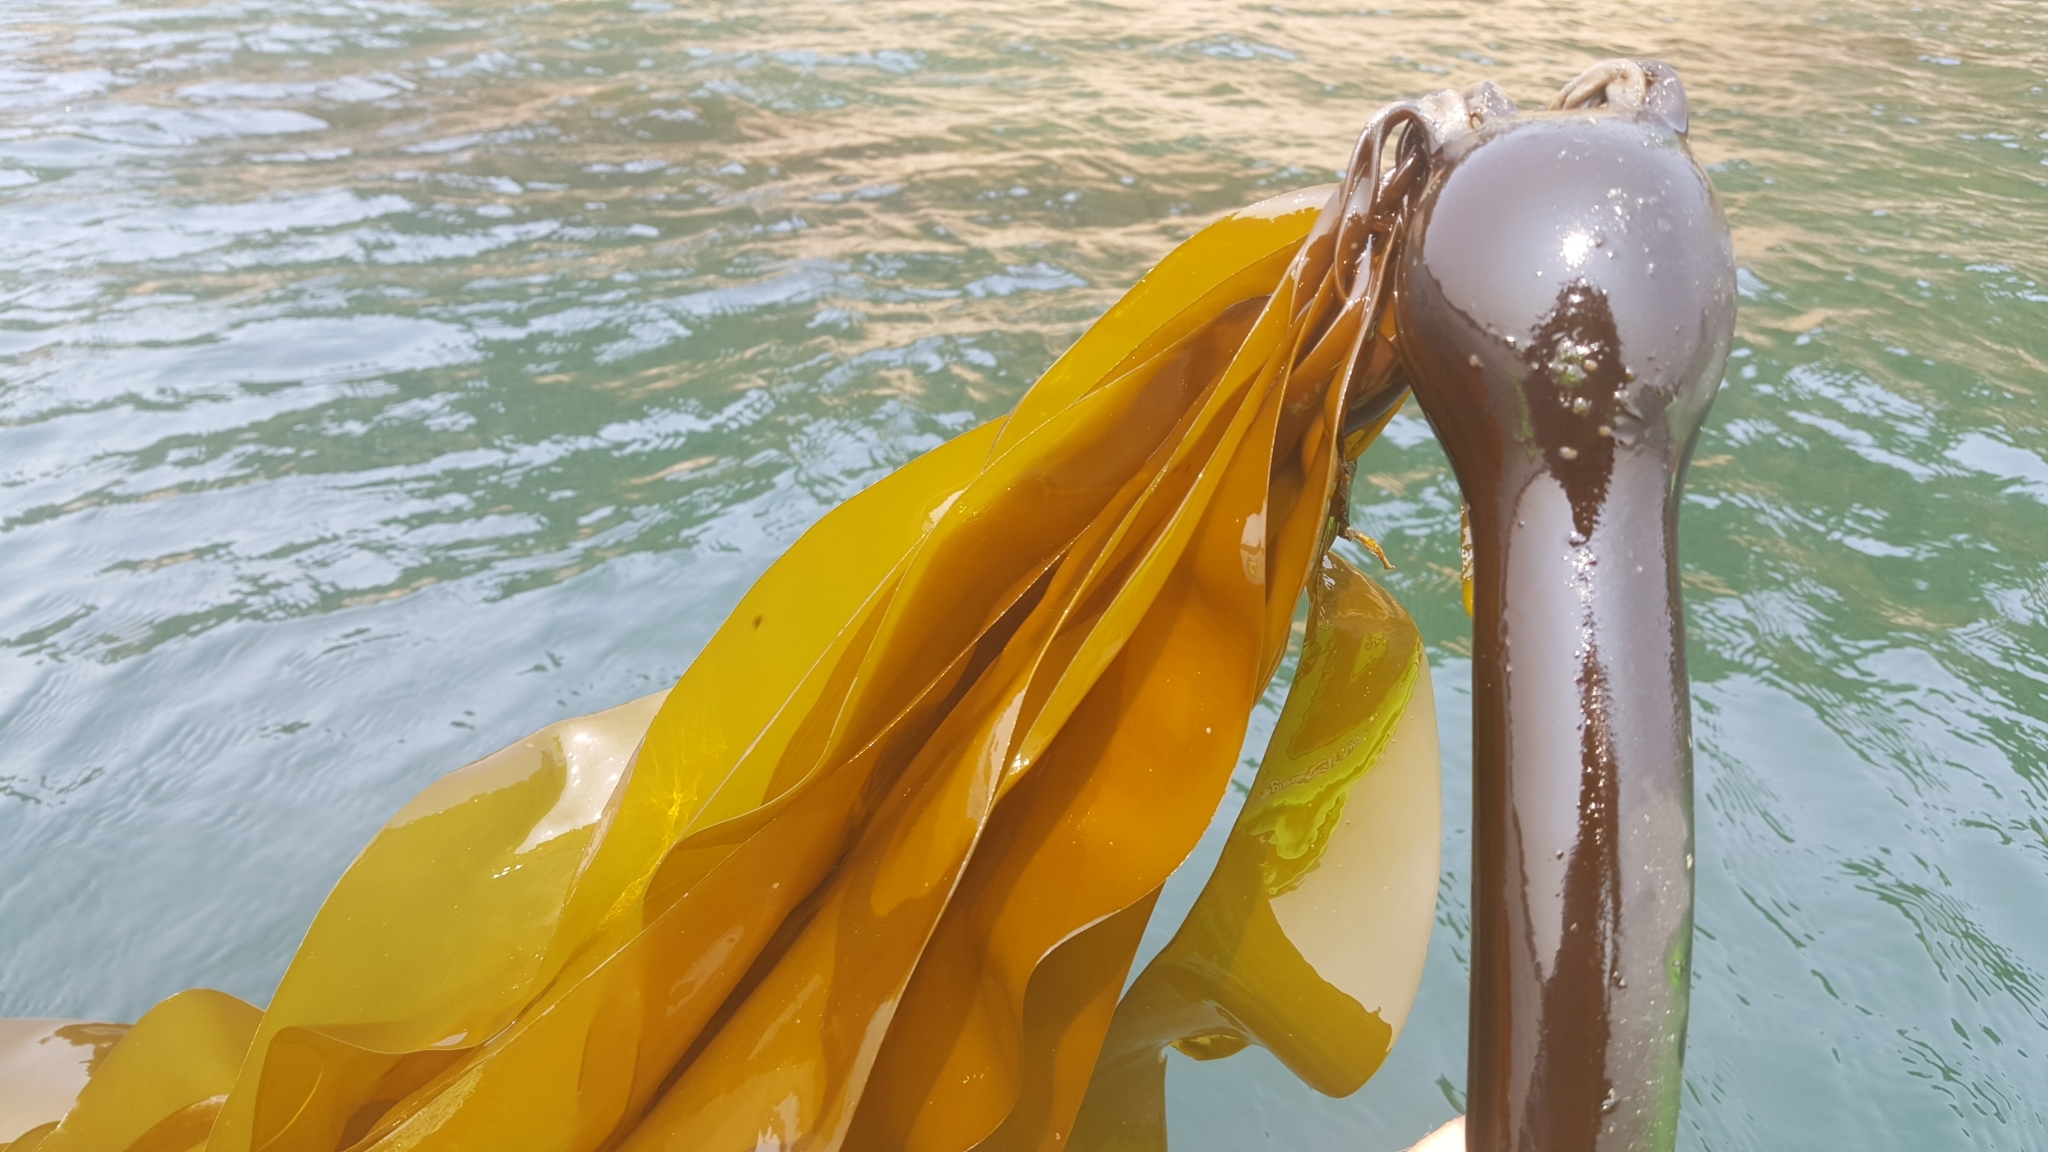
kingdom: Chromista
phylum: Ochrophyta
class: Phaeophyceae
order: Laminariales
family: Laminariaceae
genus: Nereocystis
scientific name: Nereocystis luetkeana
